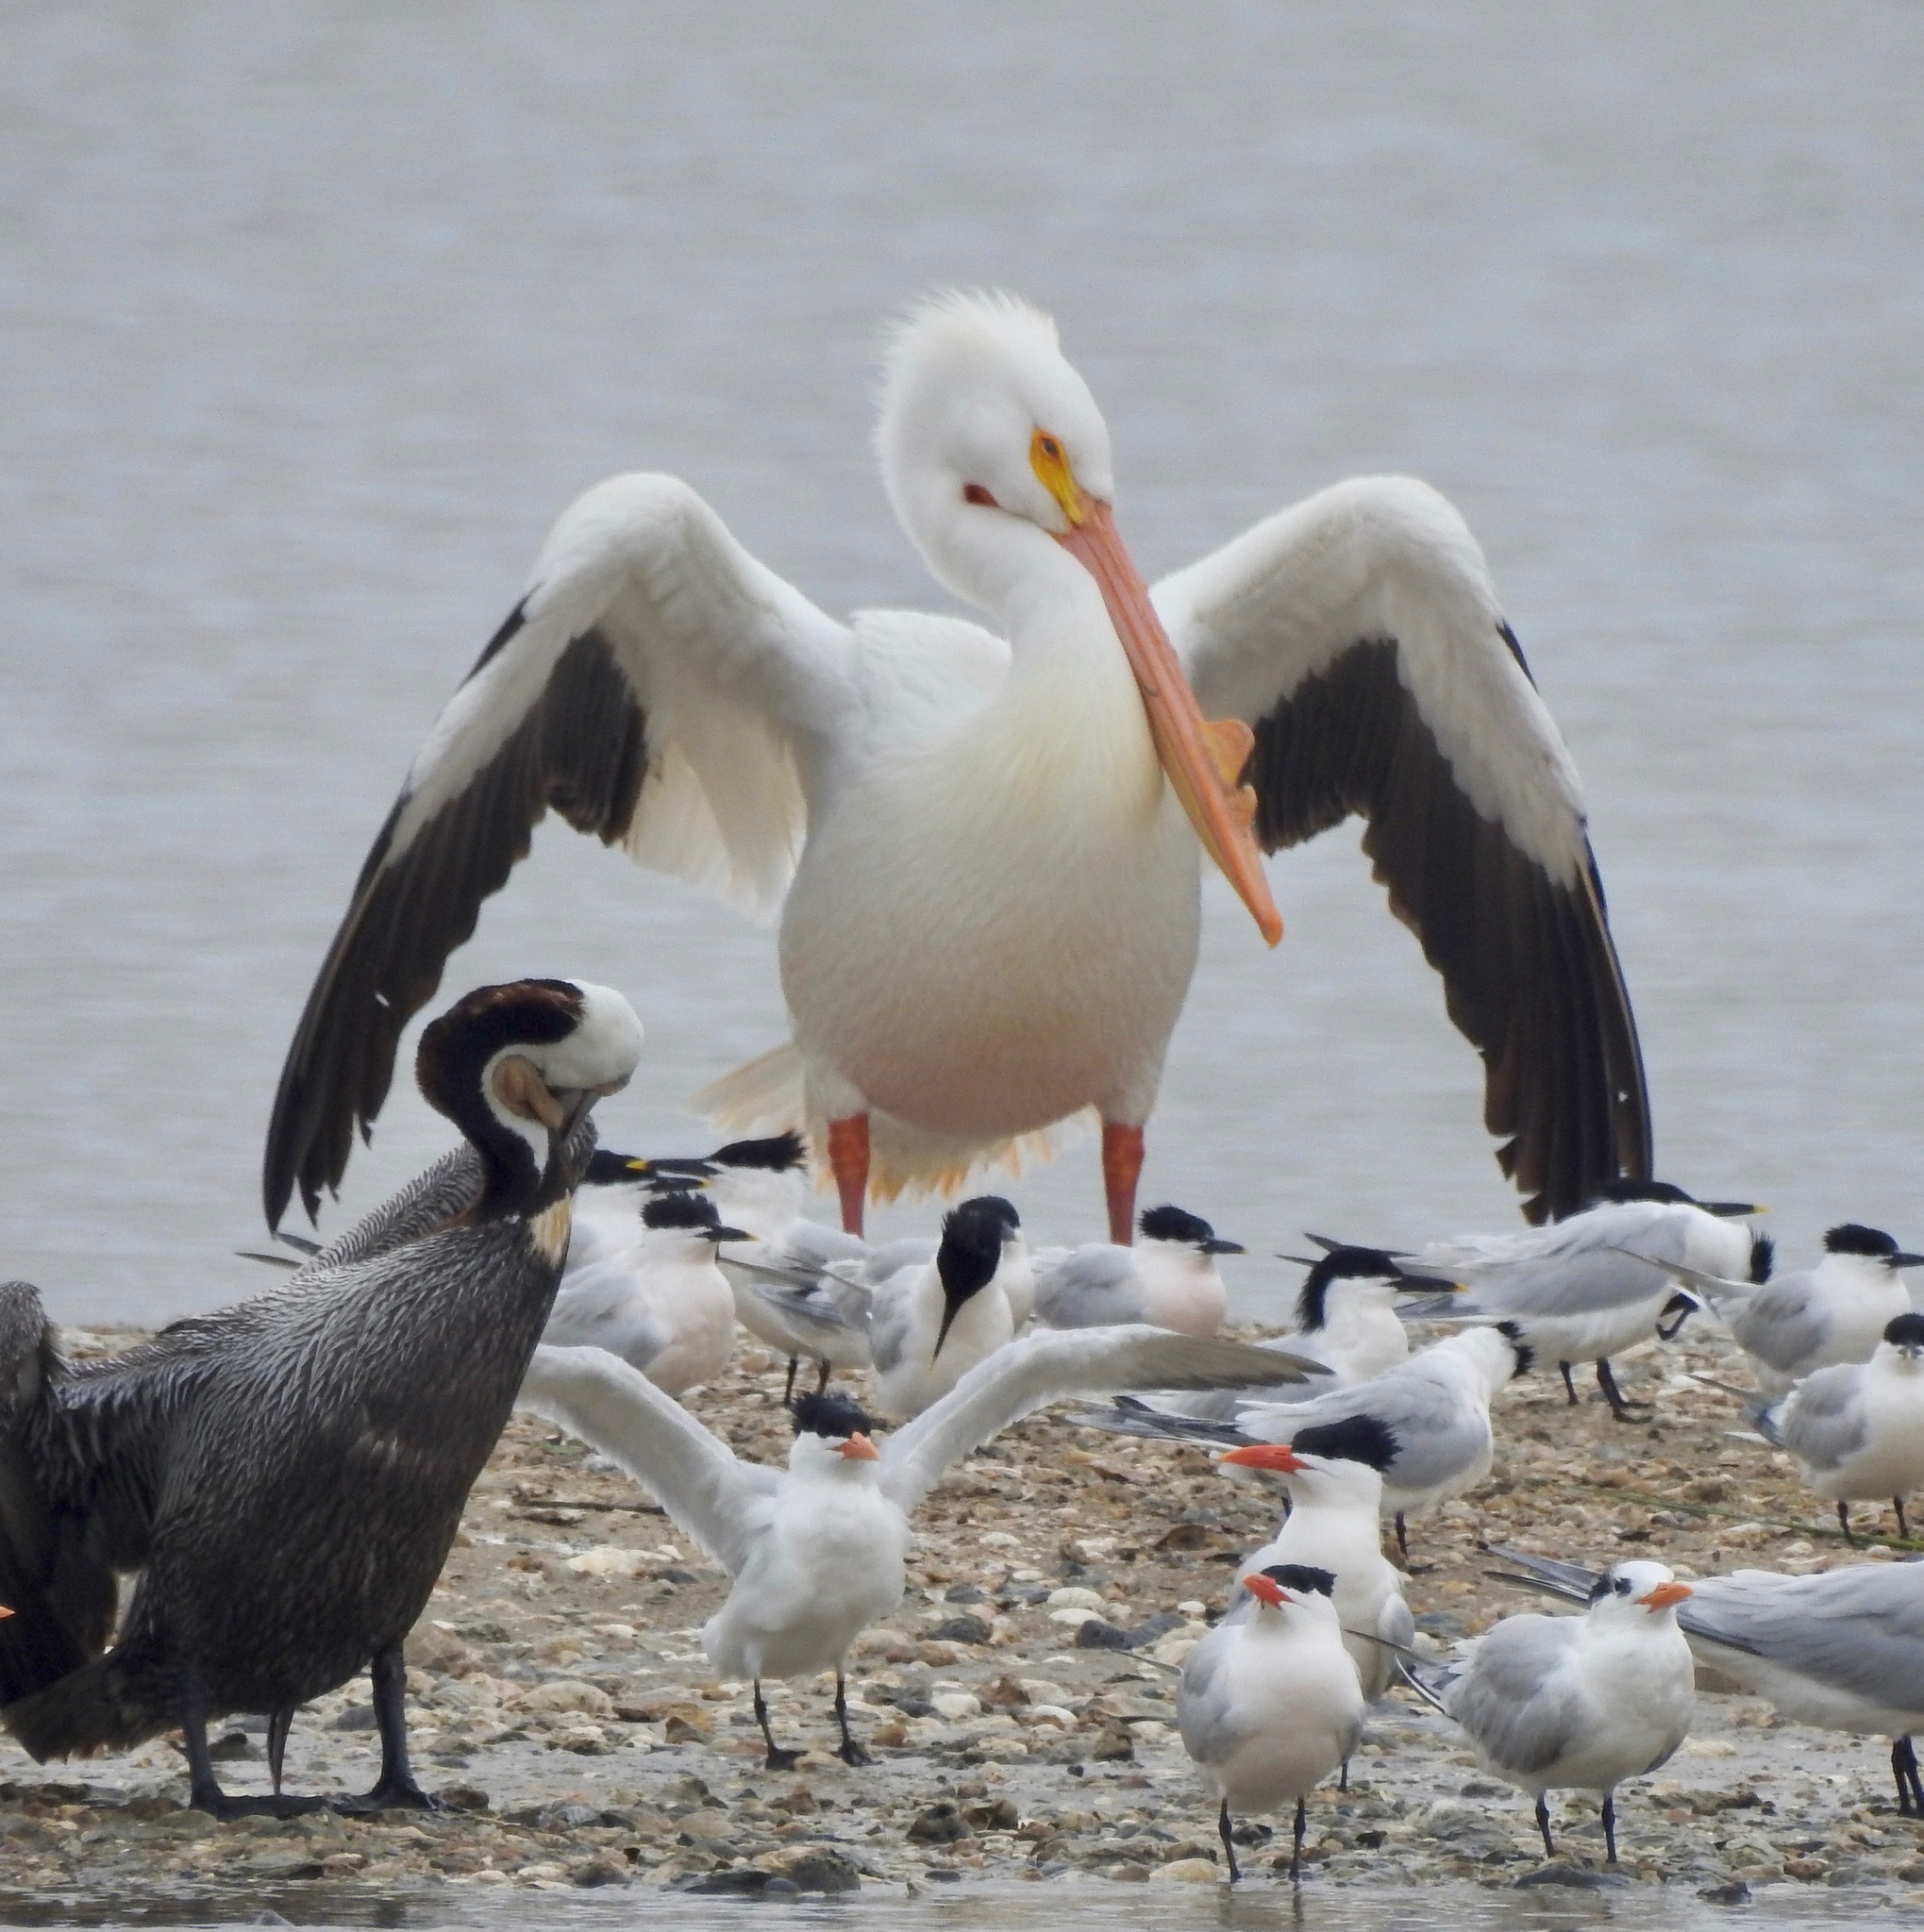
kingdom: Animalia
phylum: Chordata
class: Aves
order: Pelecaniformes
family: Pelecanidae
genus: Pelecanus
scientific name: Pelecanus erythrorhynchos
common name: American white pelican
